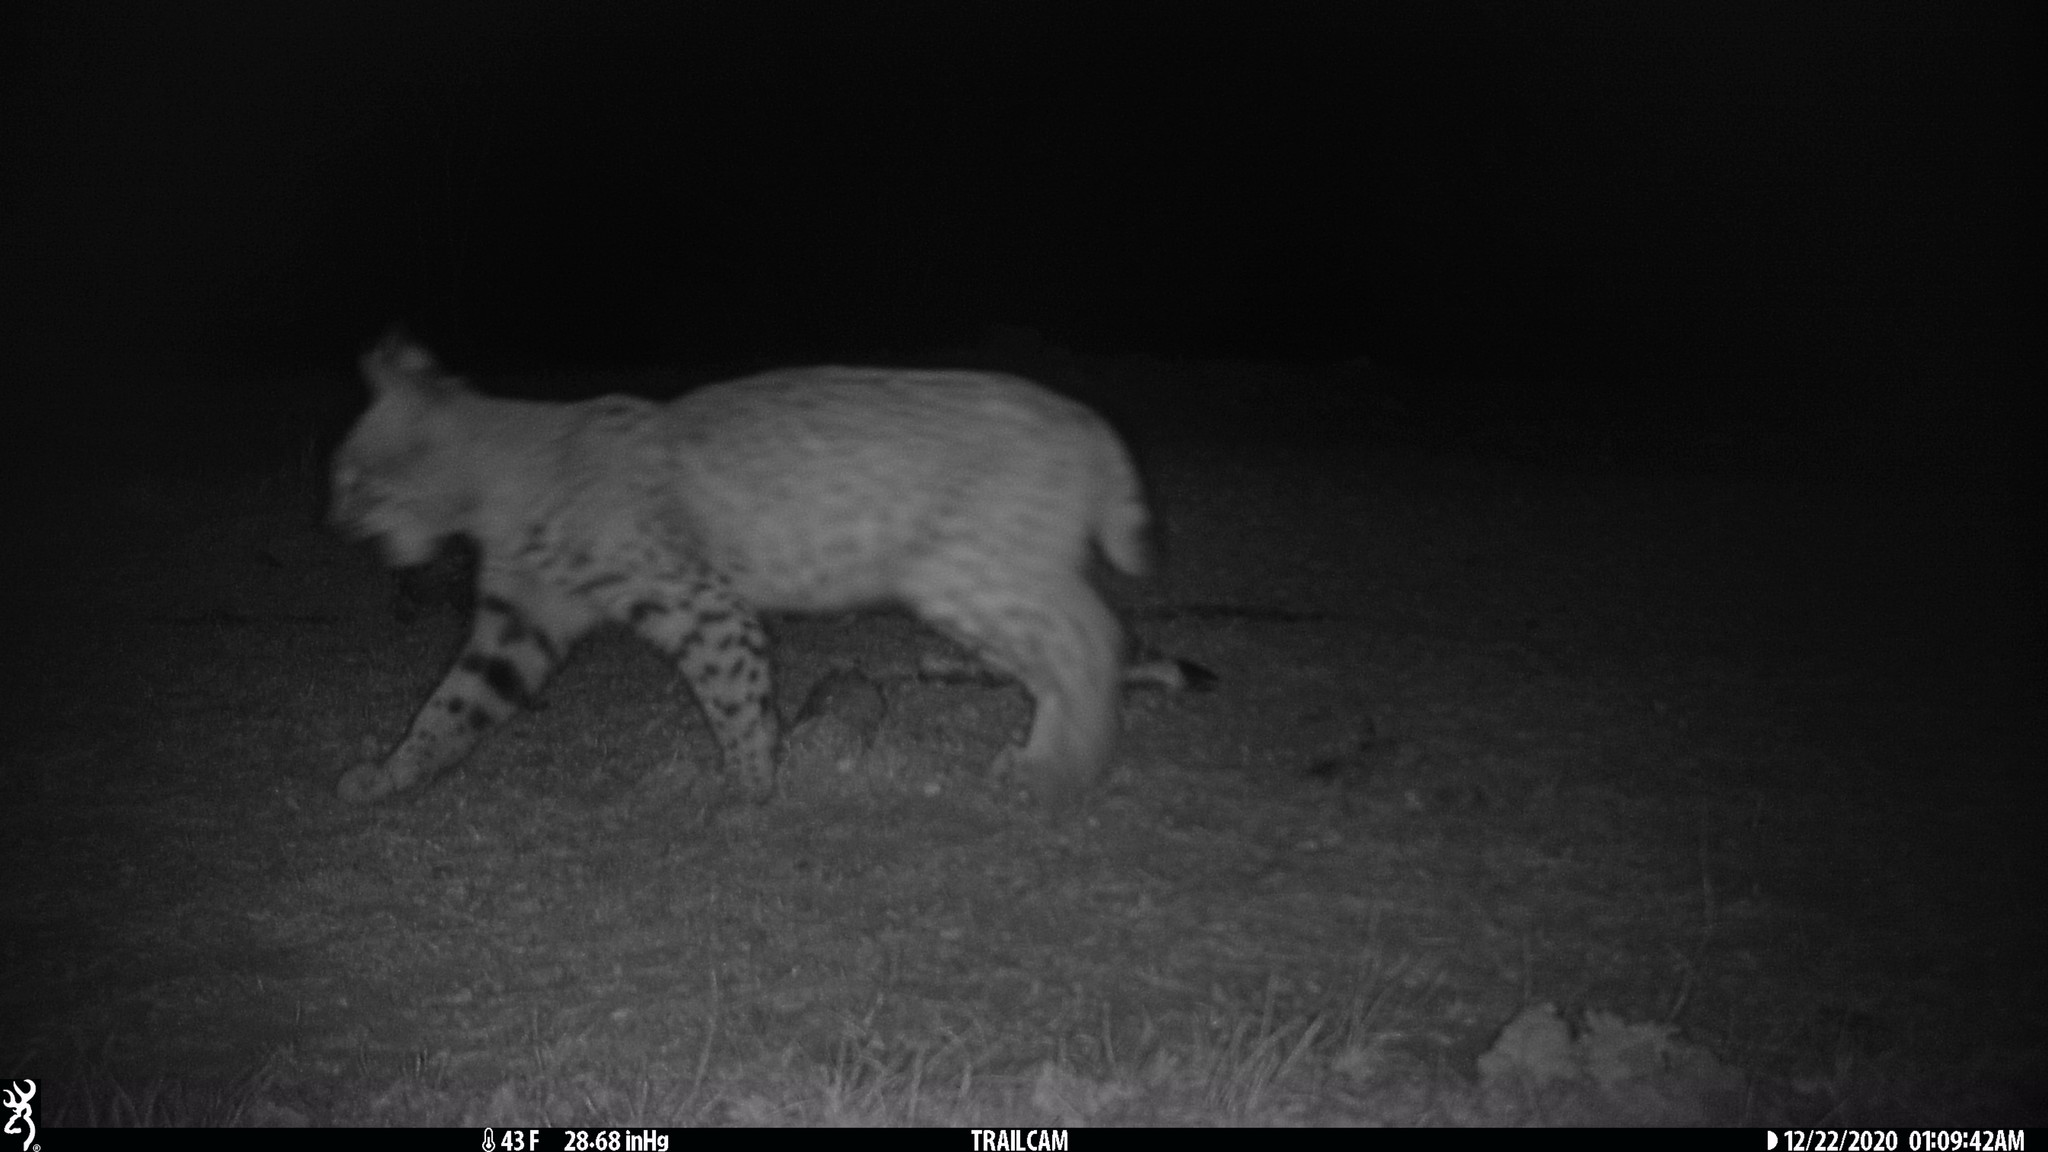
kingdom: Animalia
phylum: Chordata
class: Mammalia
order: Carnivora
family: Felidae
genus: Lynx
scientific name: Lynx rufus
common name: Bobcat
